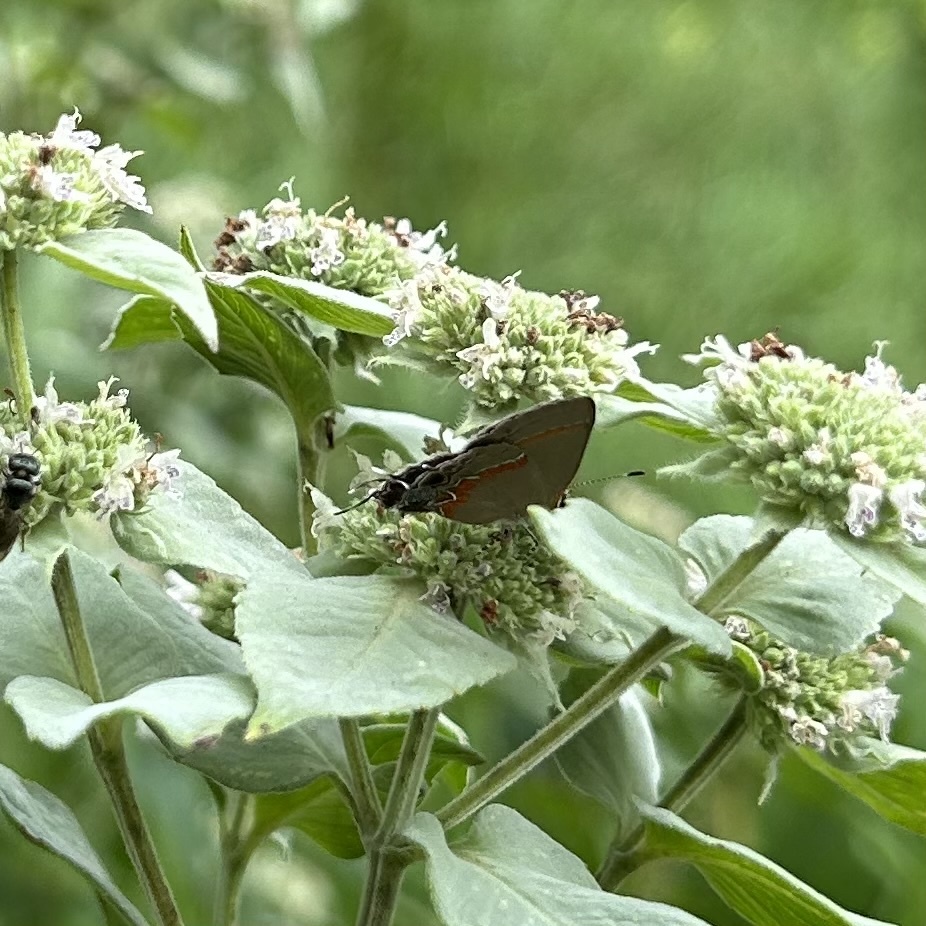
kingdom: Animalia
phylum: Arthropoda
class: Insecta
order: Lepidoptera
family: Lycaenidae
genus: Calycopis
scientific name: Calycopis cecrops
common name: Red-banded hairstreak
